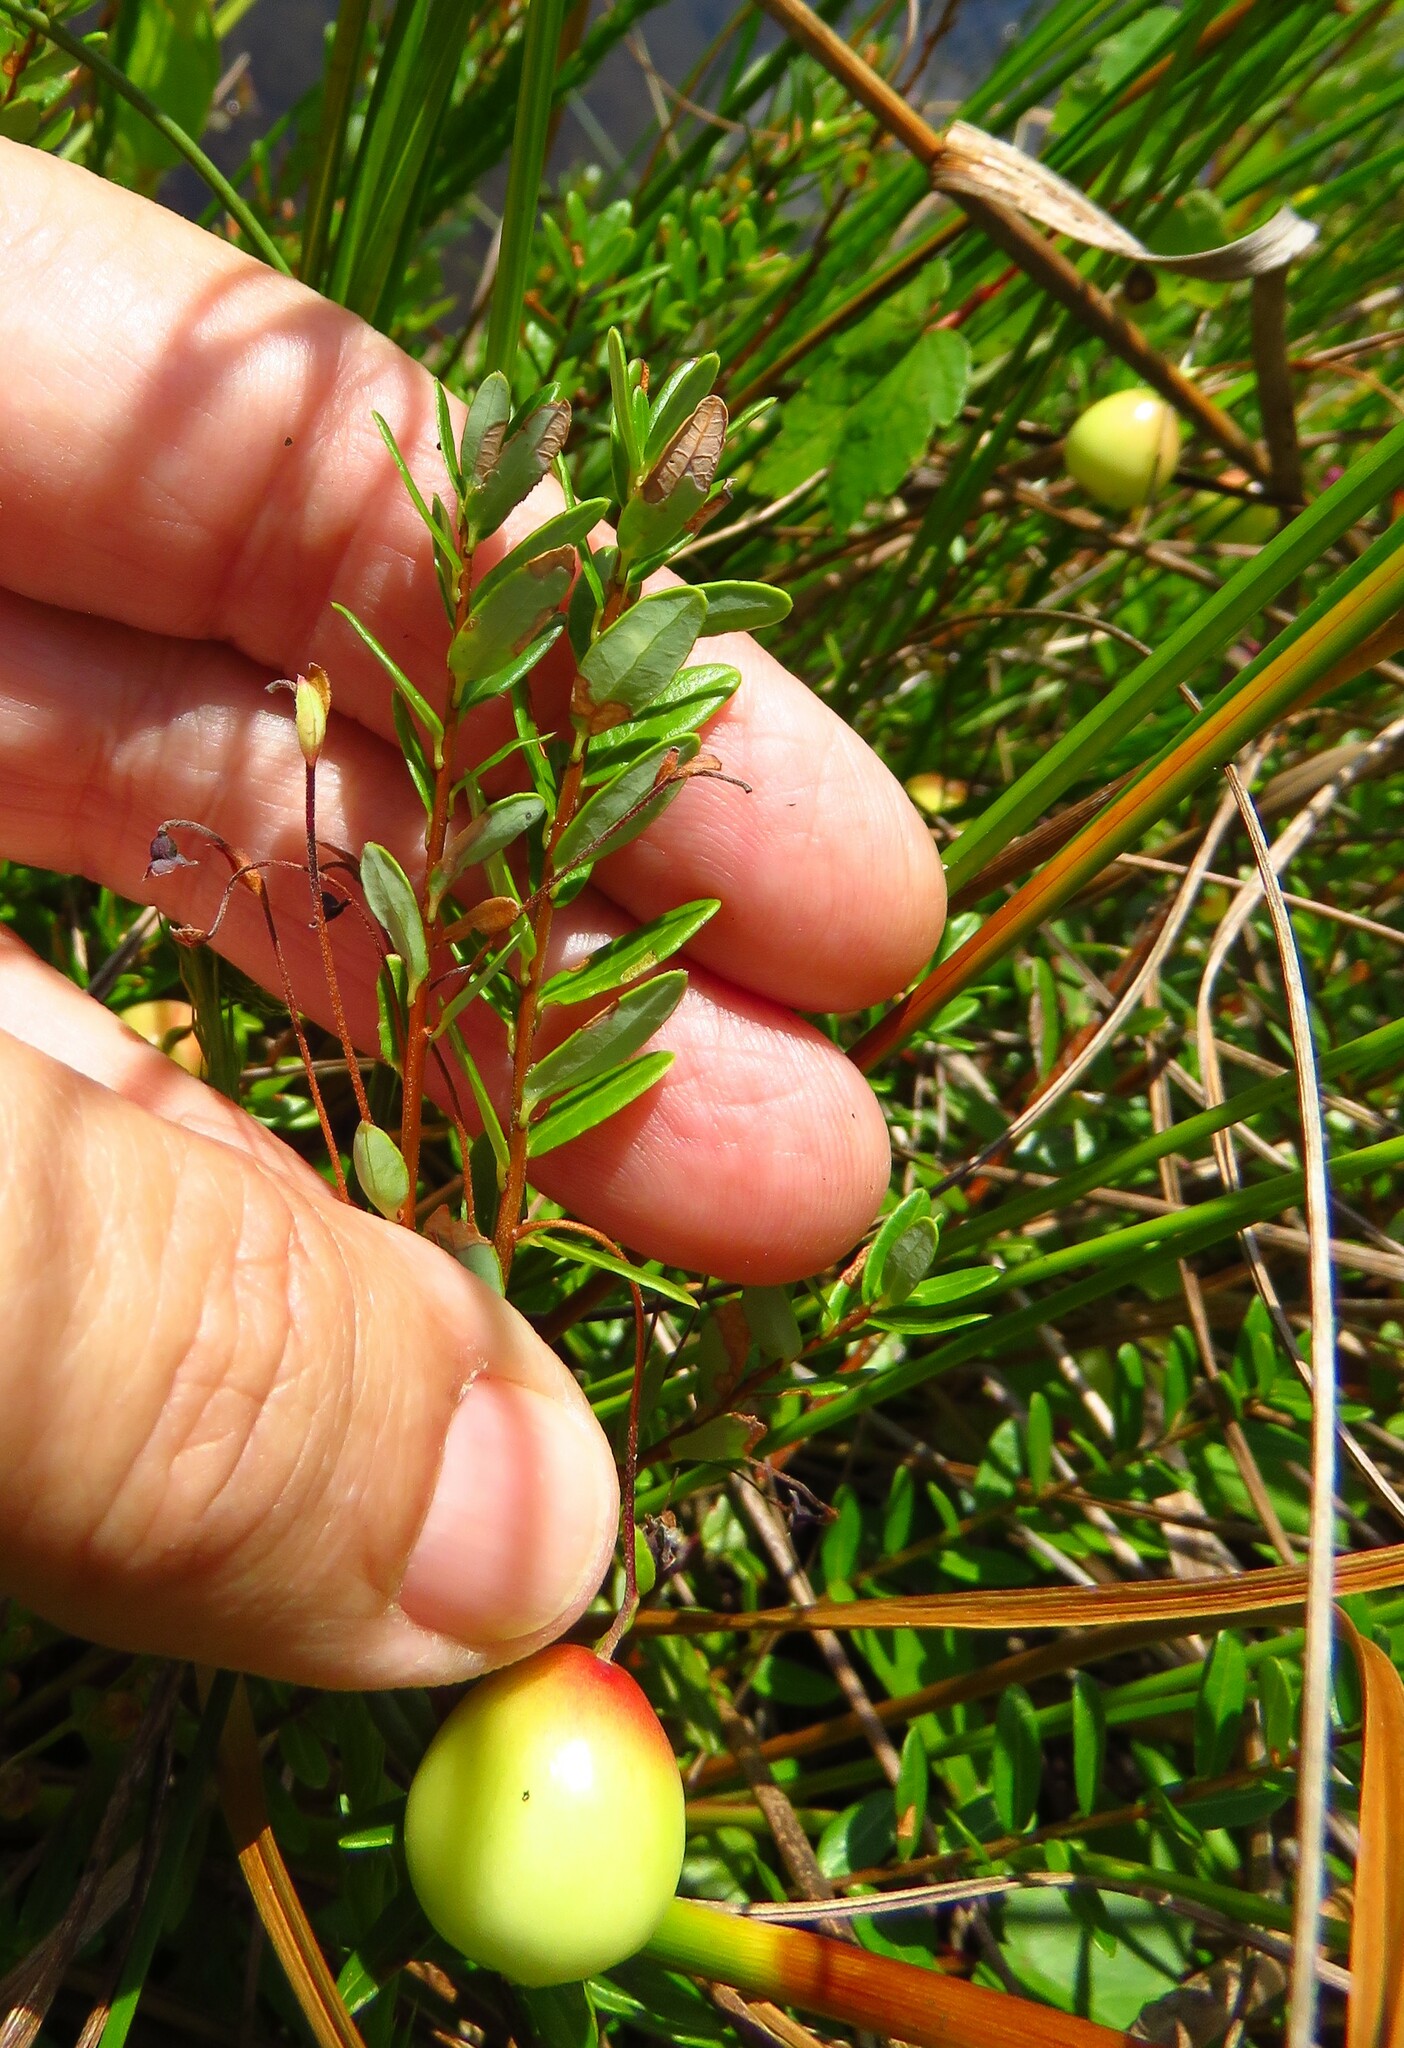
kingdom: Plantae
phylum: Tracheophyta
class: Magnoliopsida
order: Ericales
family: Ericaceae
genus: Vaccinium
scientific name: Vaccinium macrocarpon
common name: American cranberry
